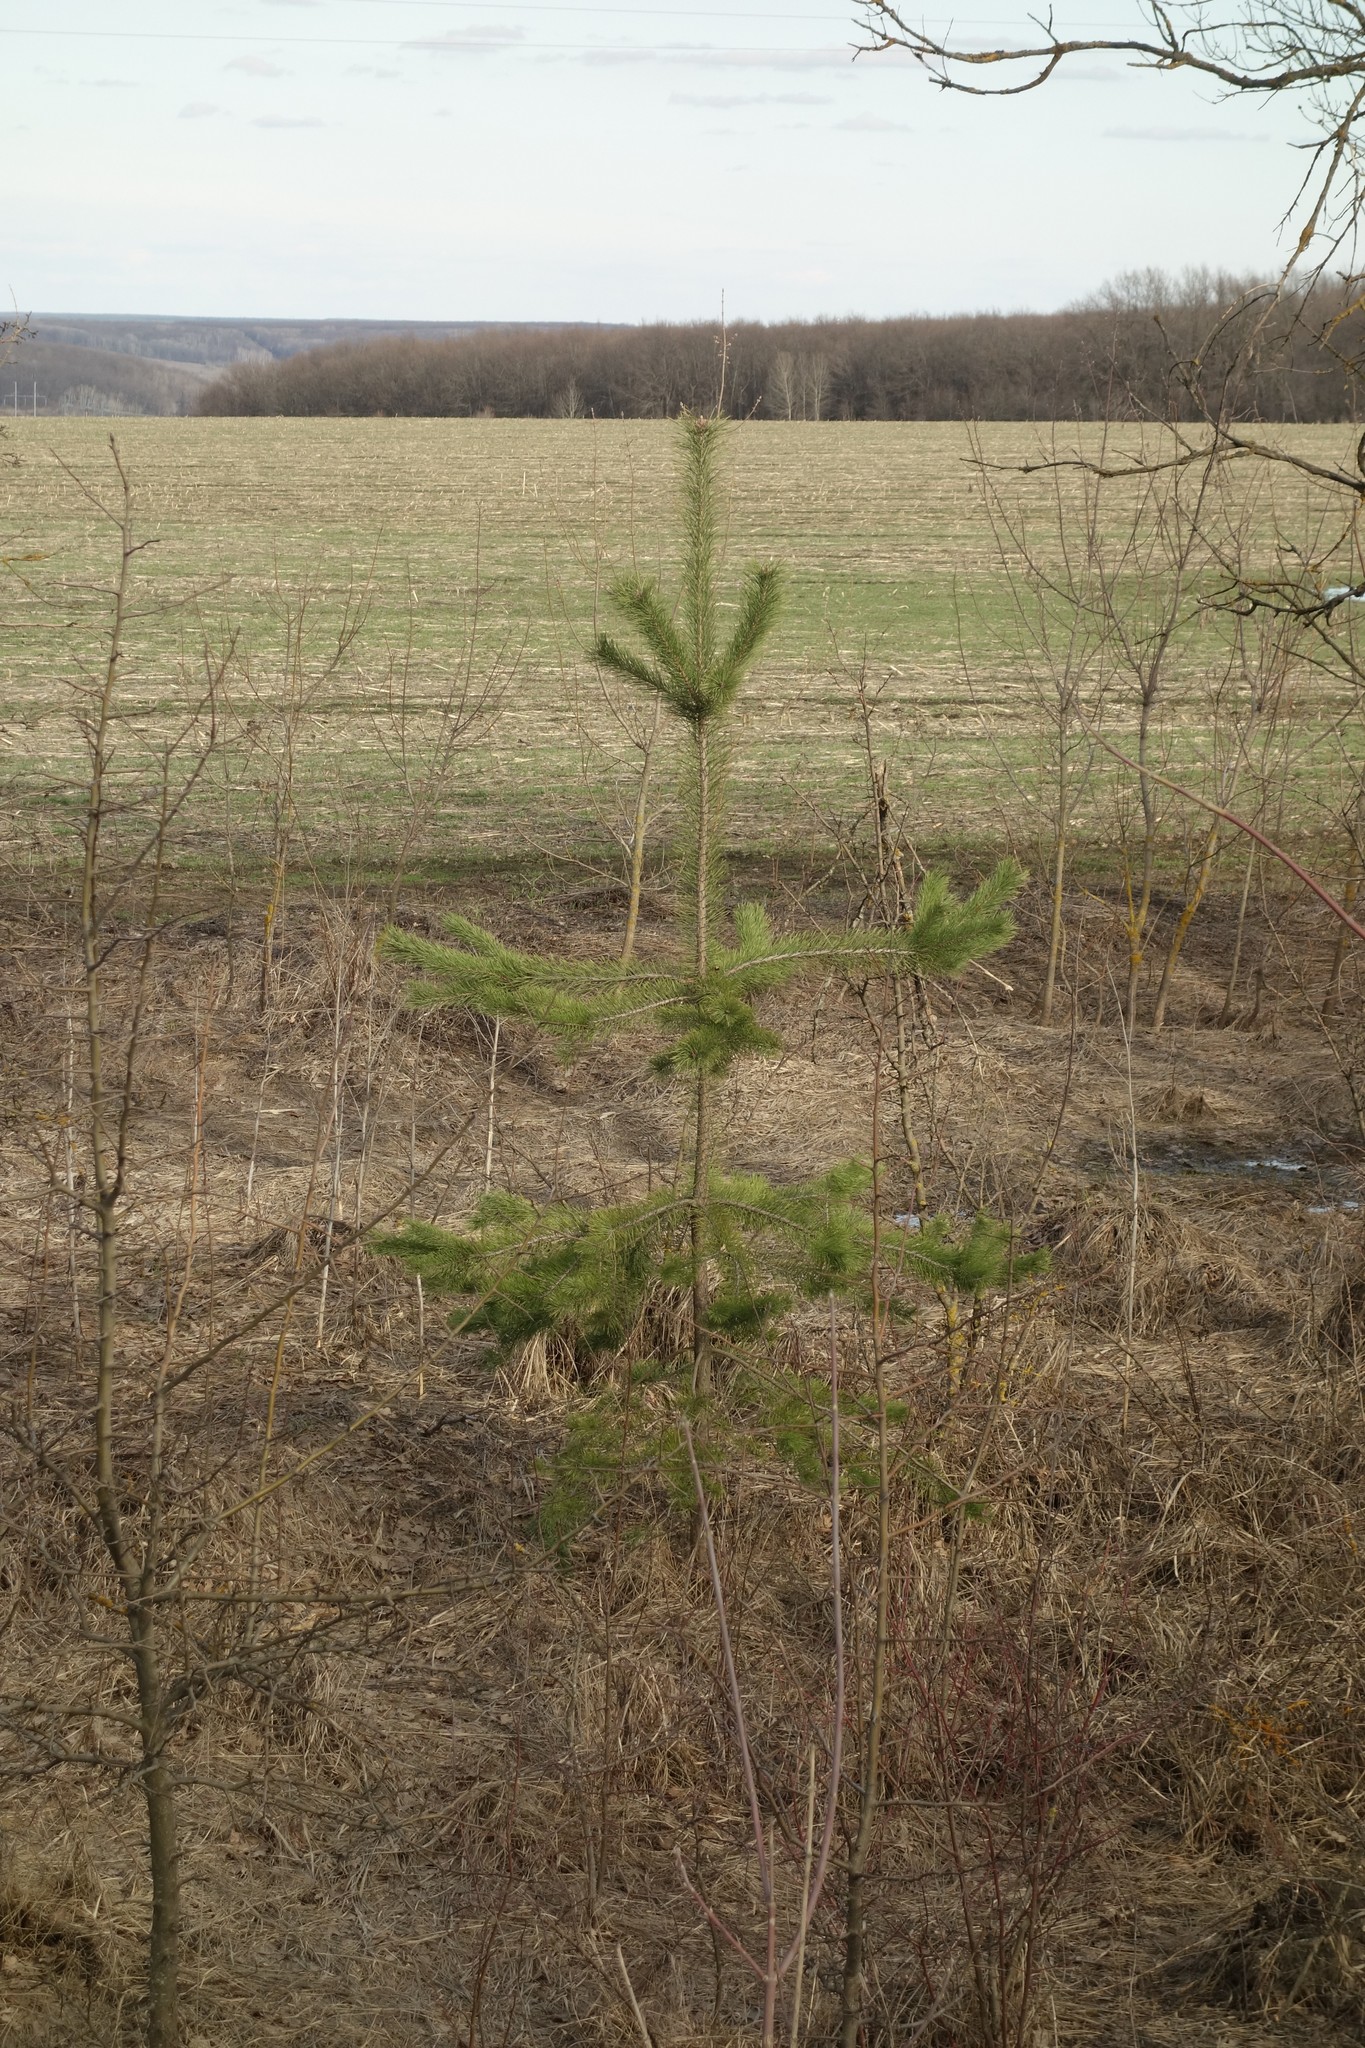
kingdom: Plantae
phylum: Tracheophyta
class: Pinopsida
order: Pinales
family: Pinaceae
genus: Pinus
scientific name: Pinus sylvestris
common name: Scots pine
